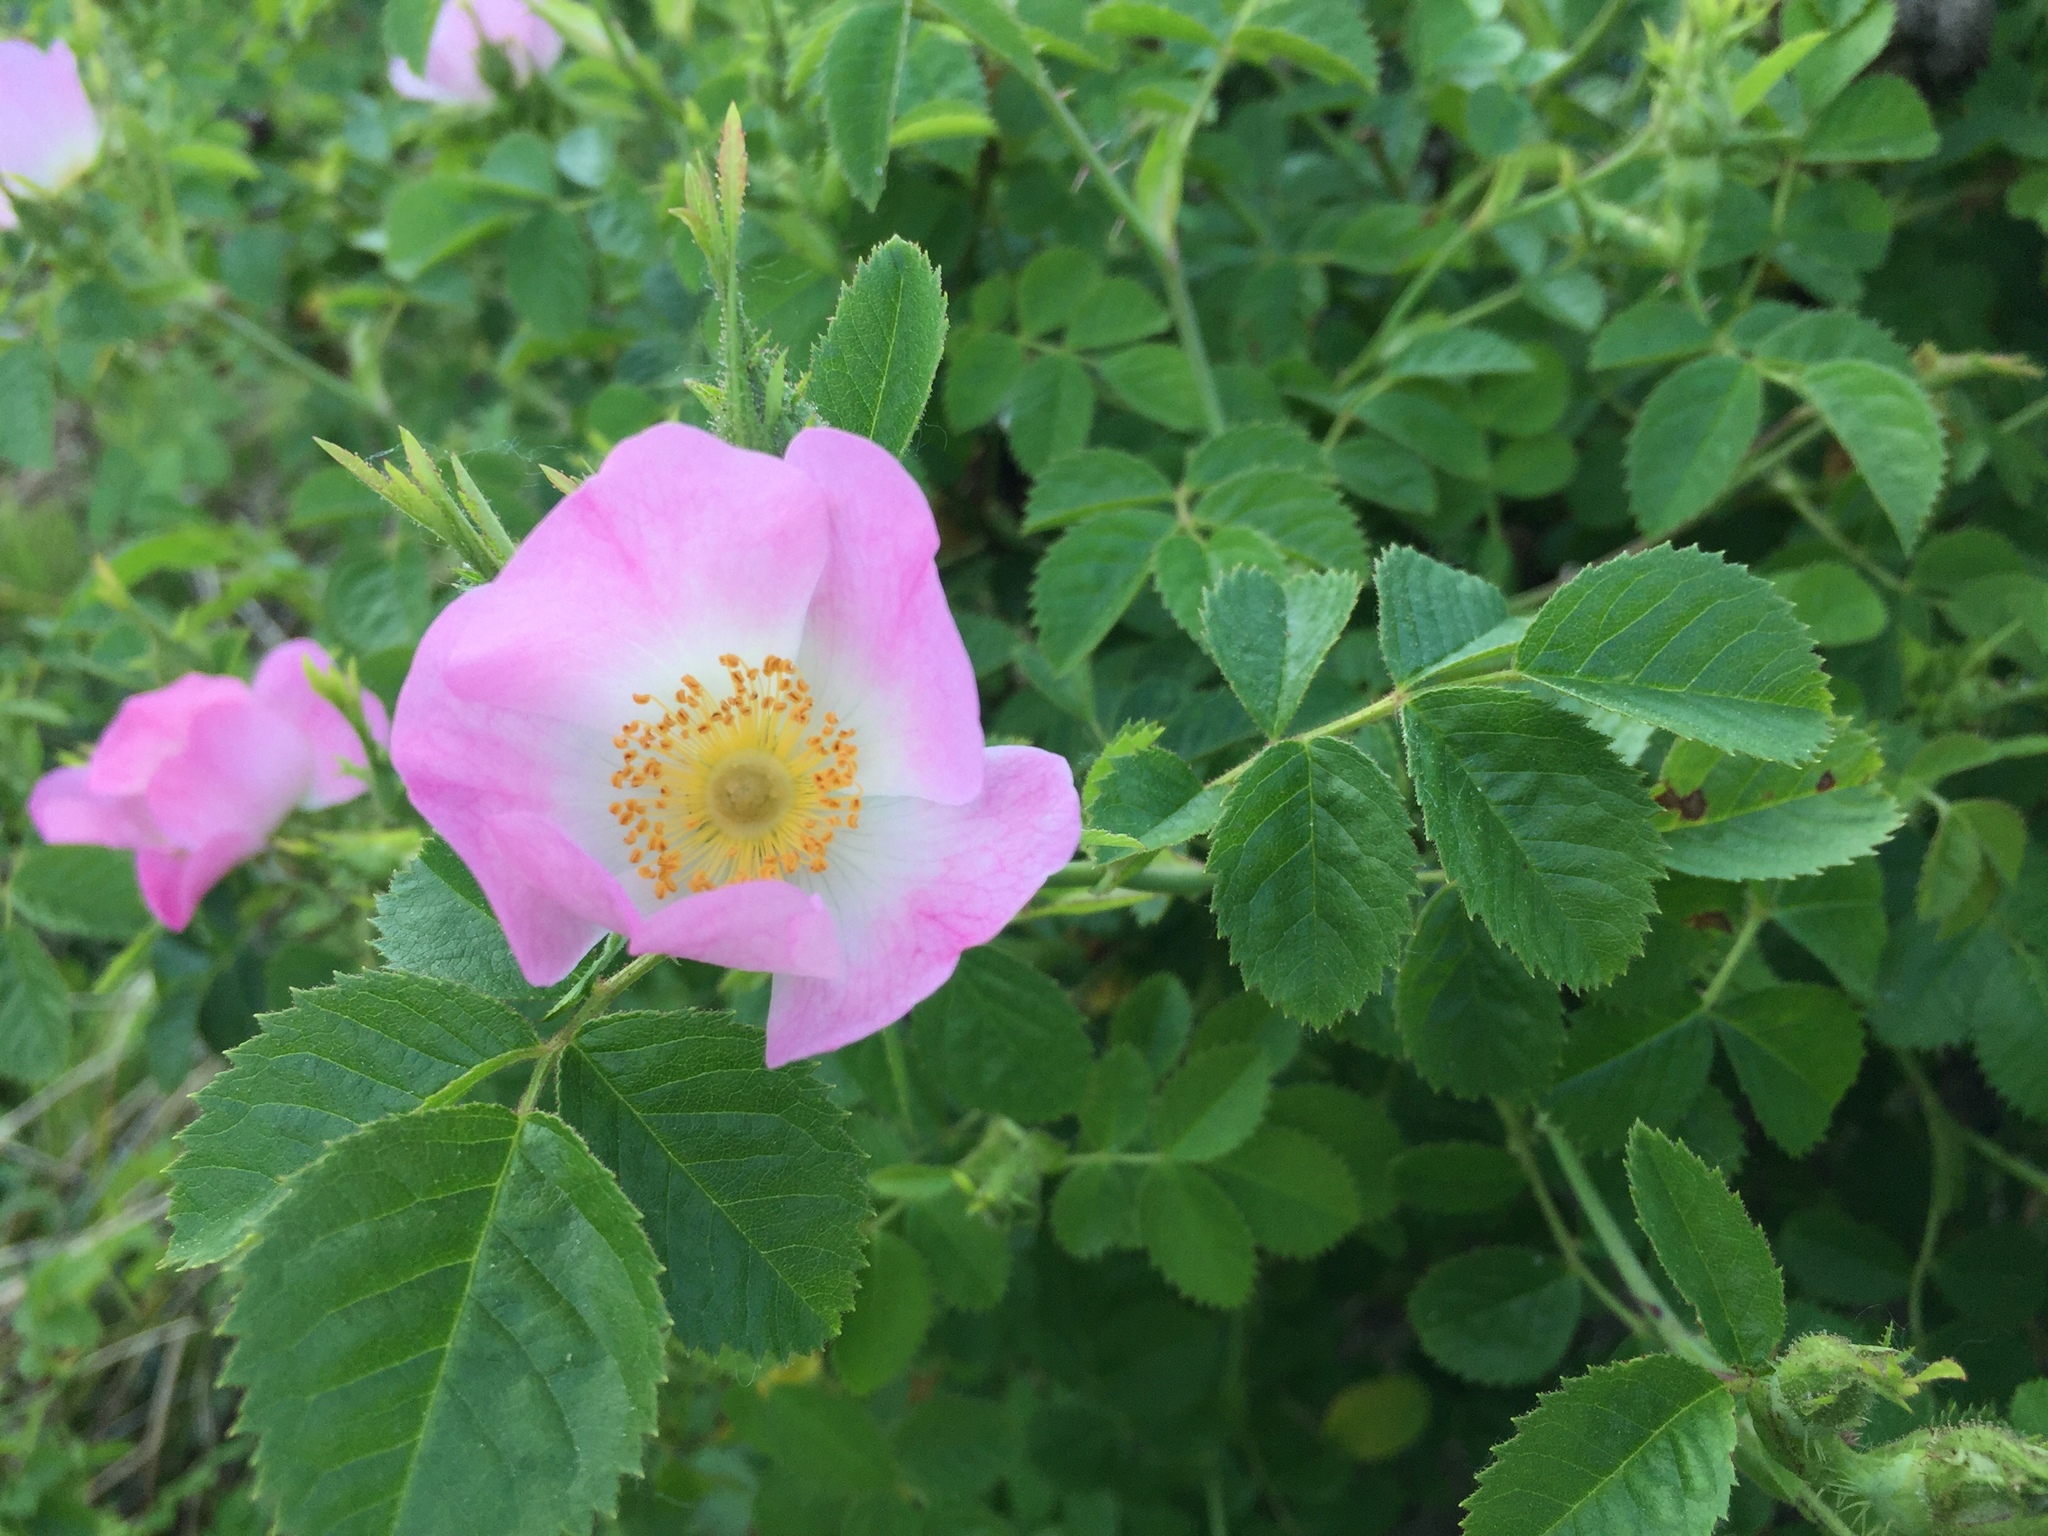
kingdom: Plantae
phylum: Tracheophyta
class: Magnoliopsida
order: Rosales
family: Rosaceae
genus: Rosa
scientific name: Rosa nutkana
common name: Nootka rose
